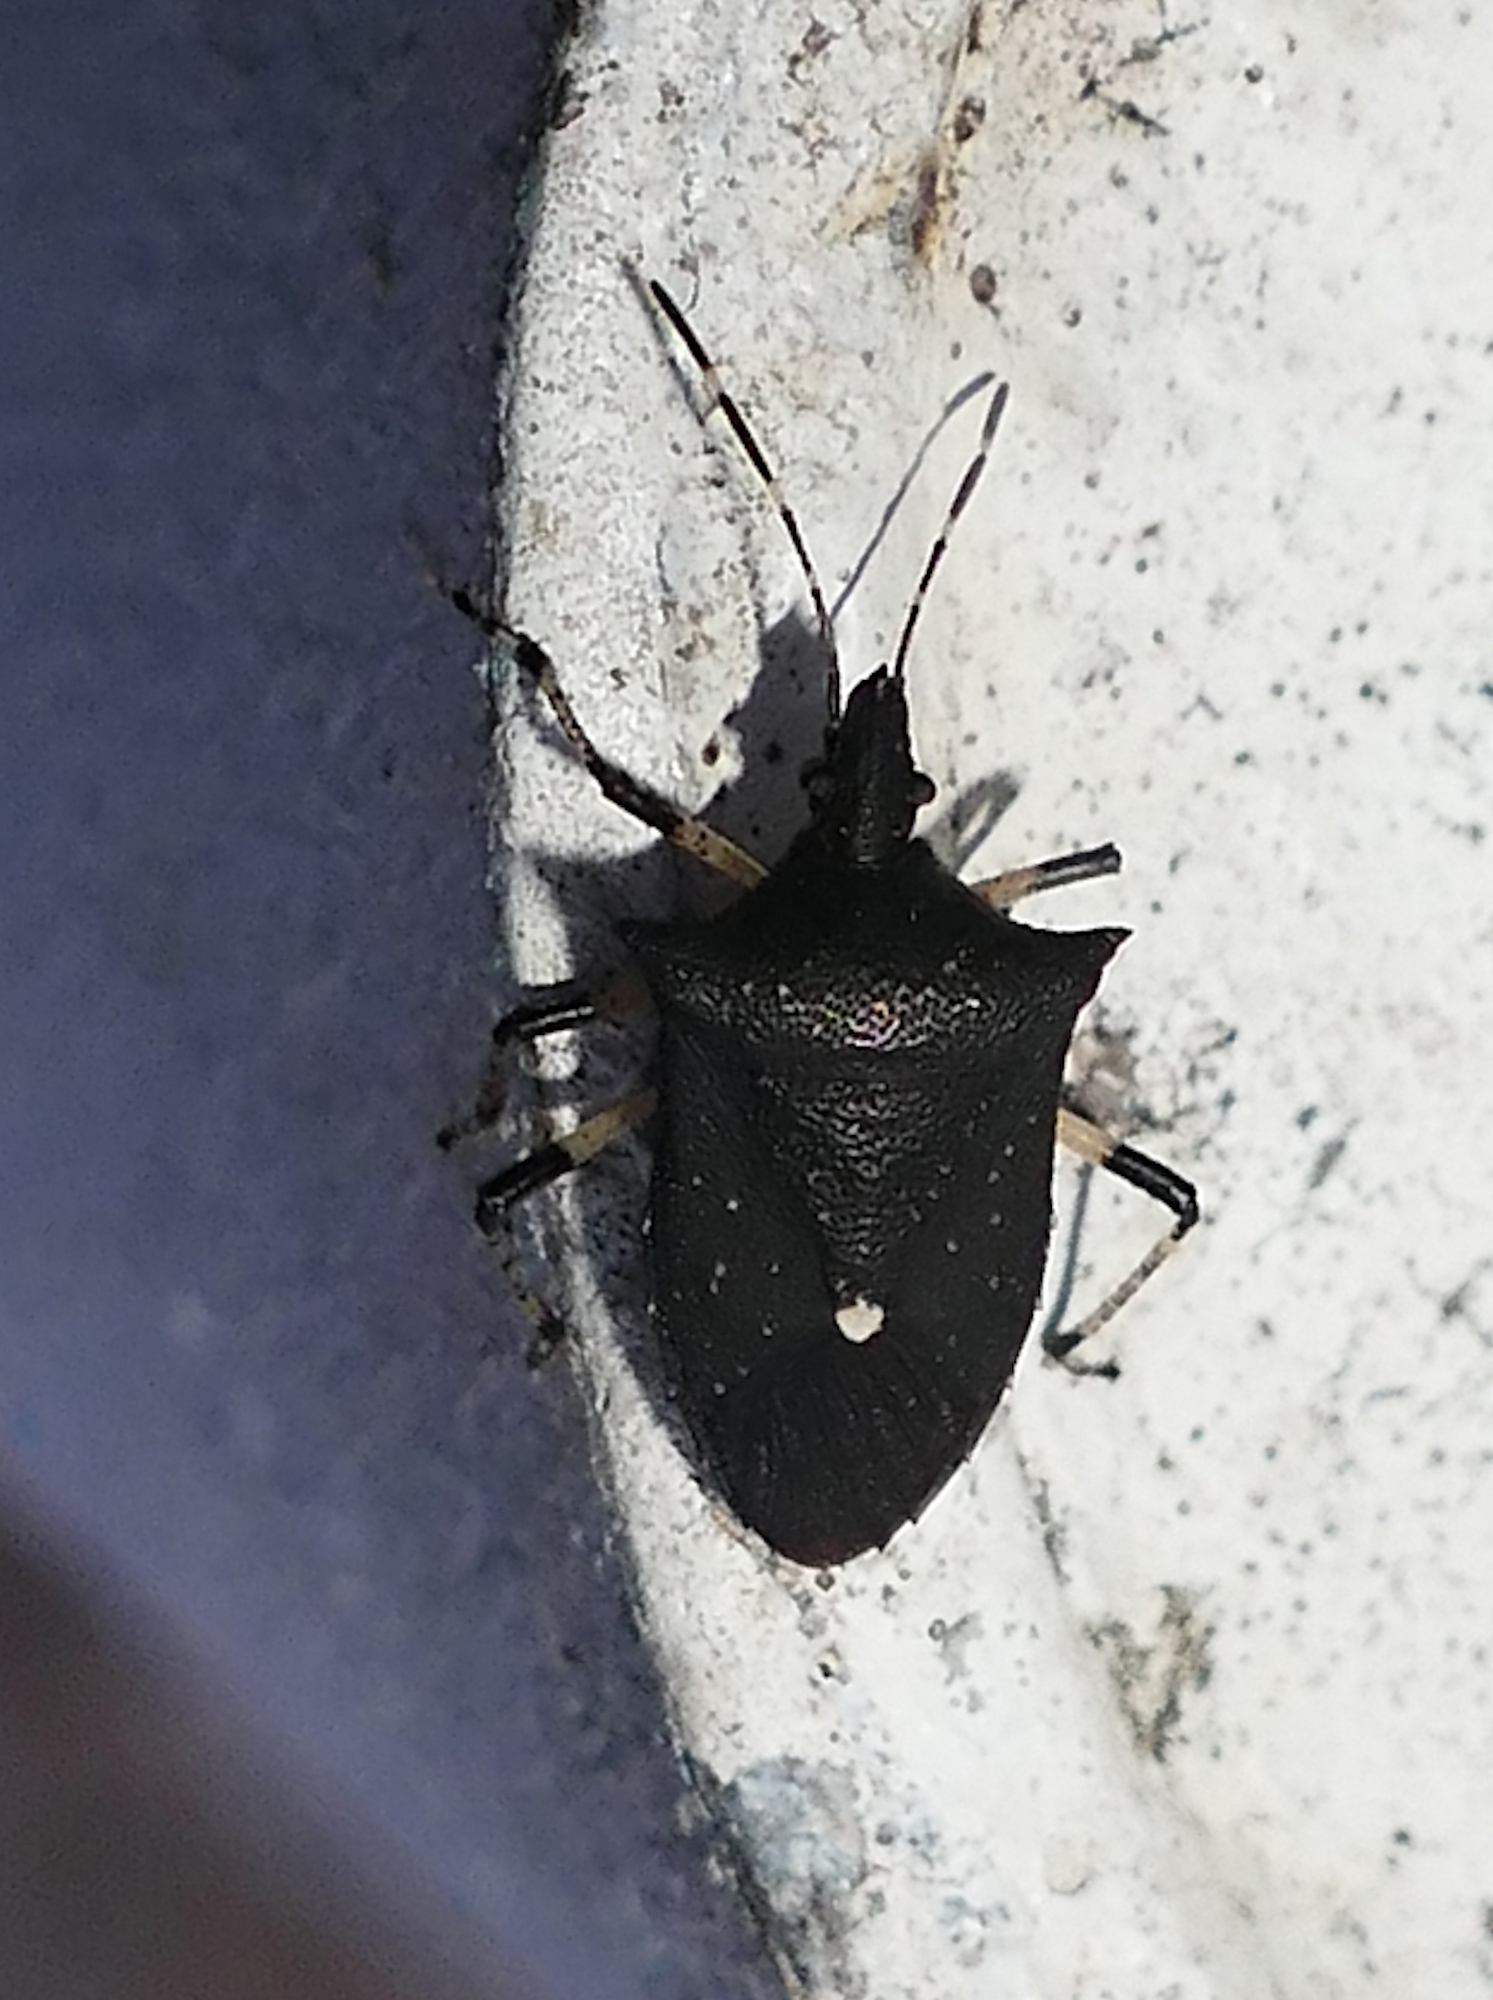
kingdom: Animalia
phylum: Arthropoda
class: Insecta
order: Hemiptera
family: Pentatomidae
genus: Proxys
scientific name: Proxys punctulatus
